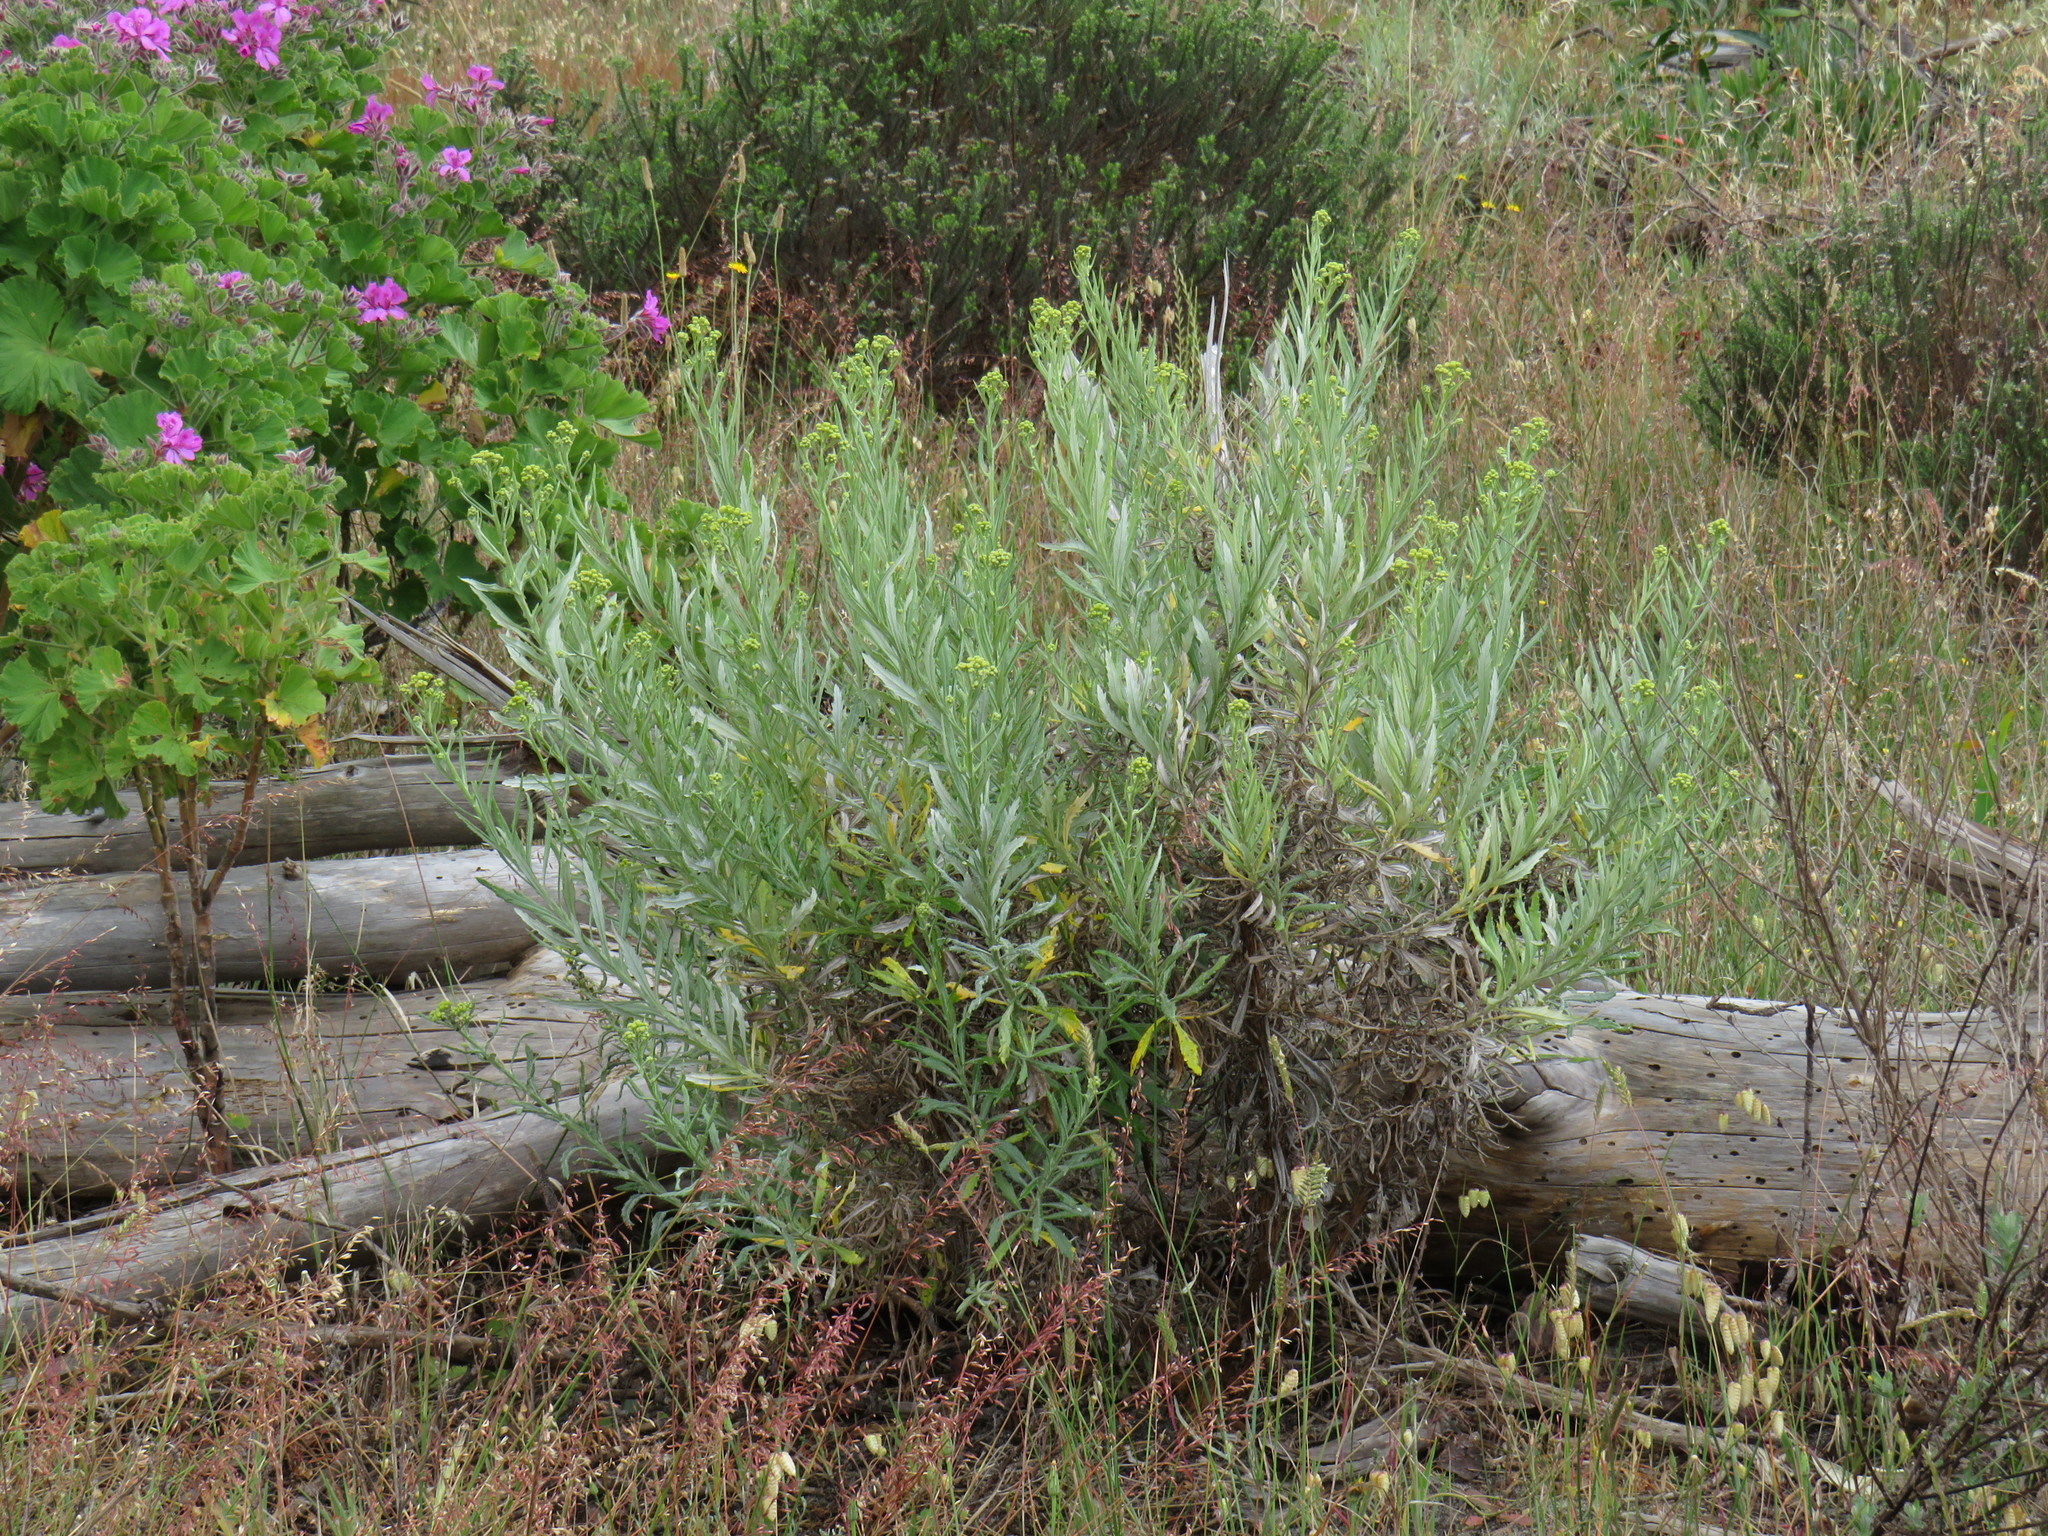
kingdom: Plantae
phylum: Tracheophyta
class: Magnoliopsida
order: Asterales
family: Asteraceae
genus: Senecio
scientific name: Senecio pterophorus
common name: Shoddy ragwort
